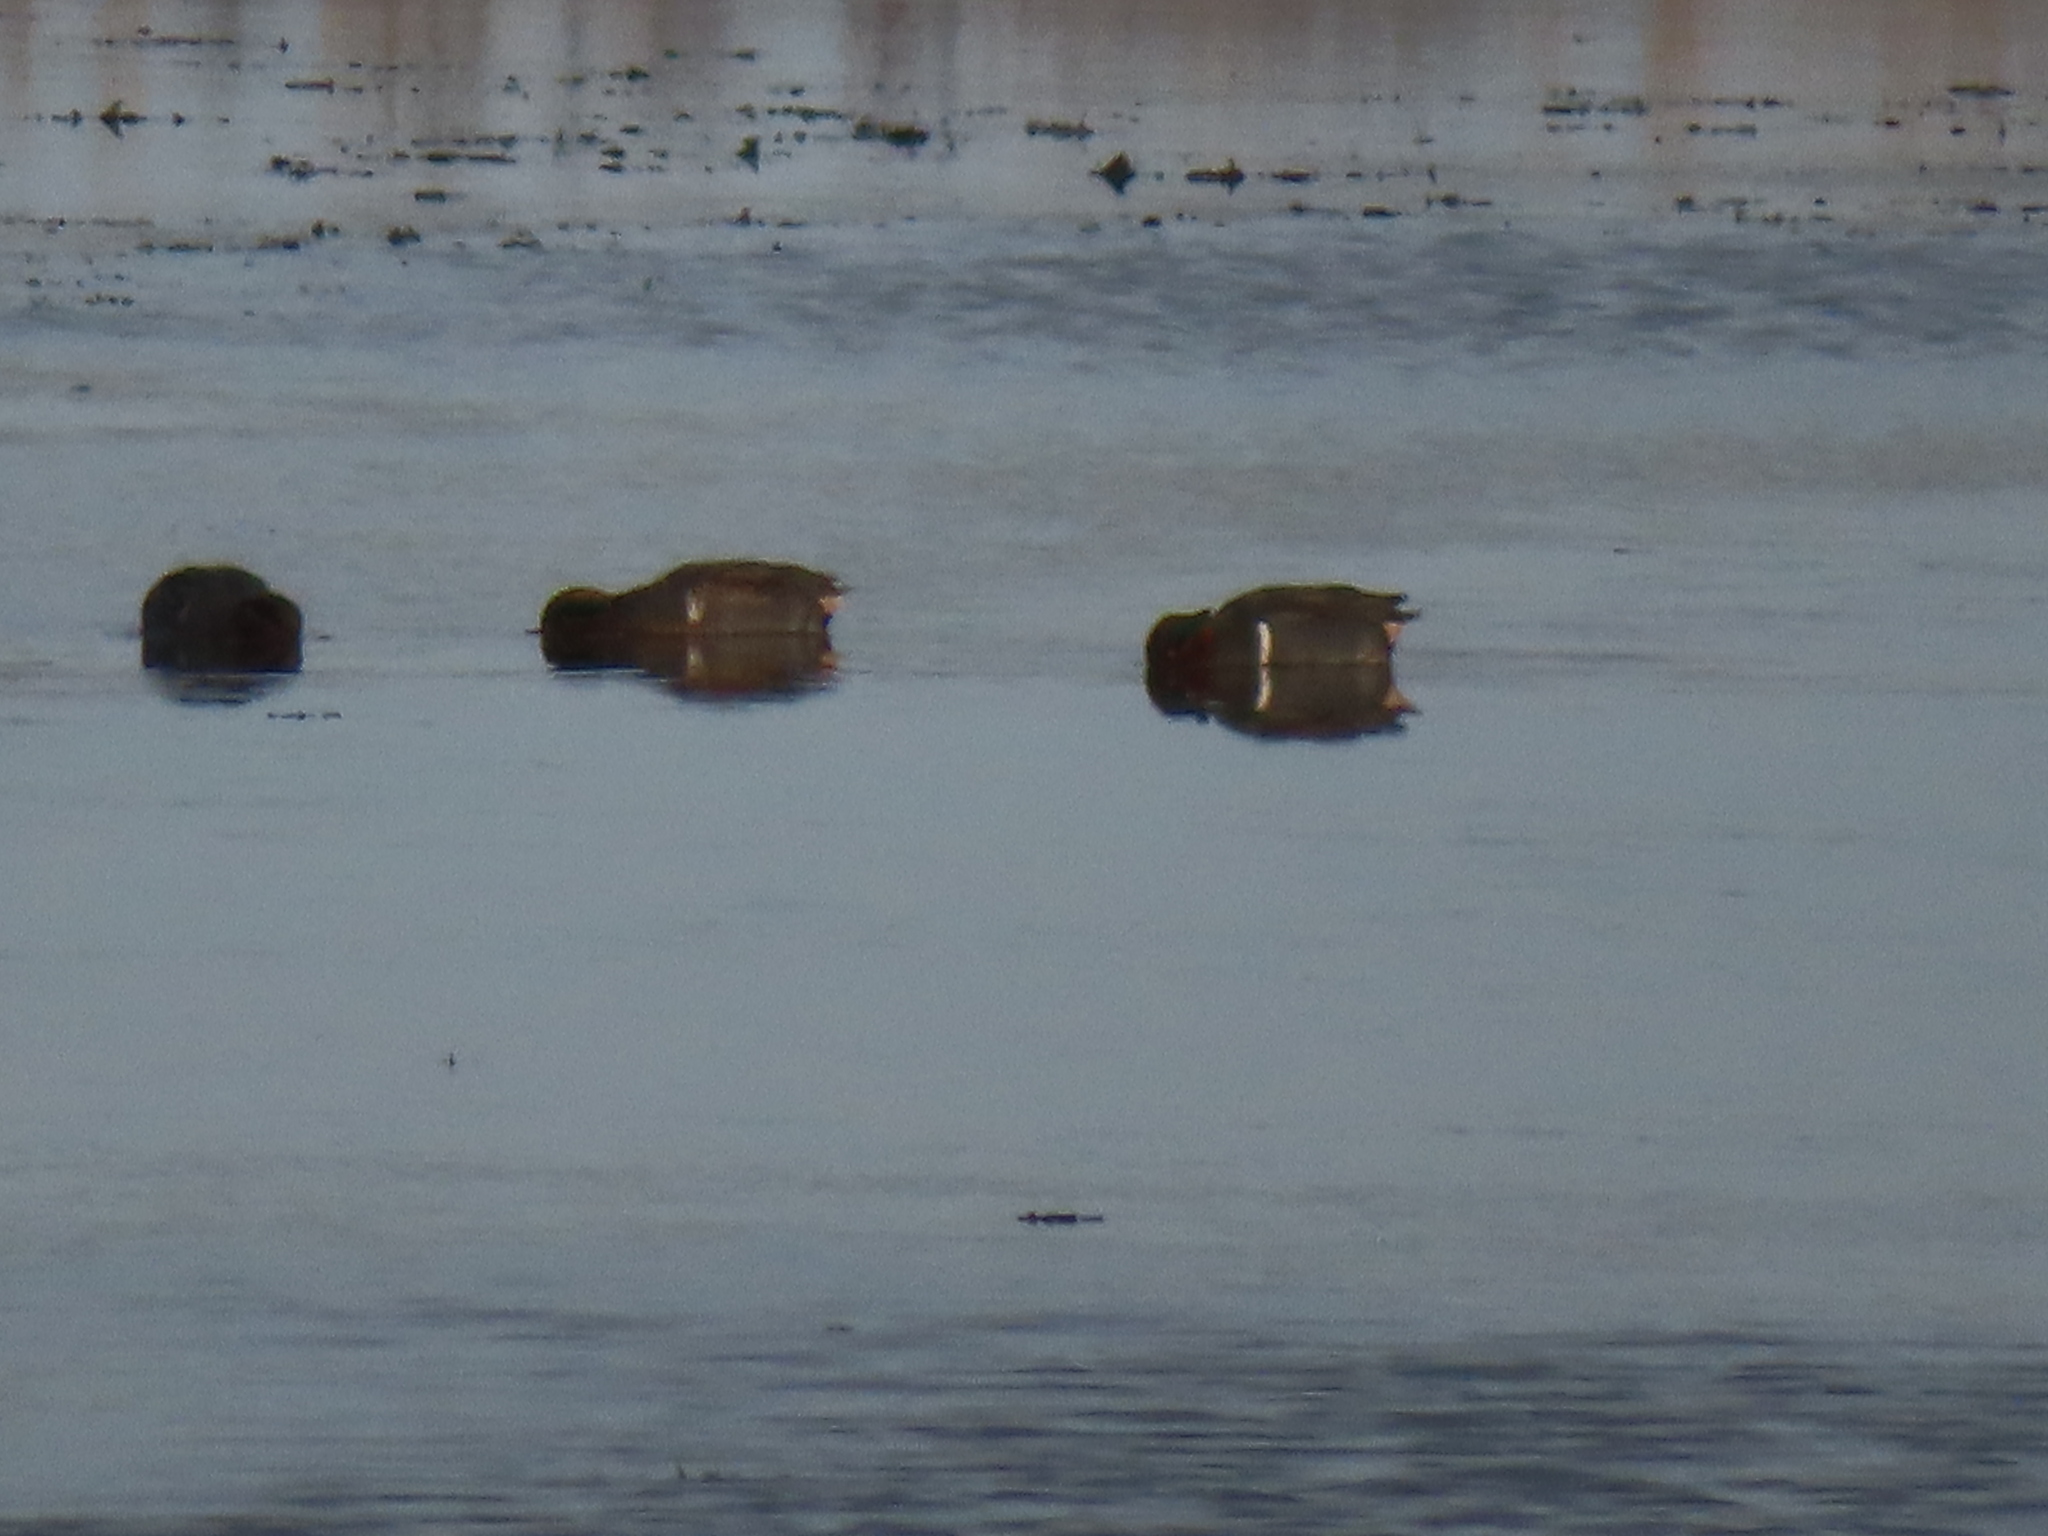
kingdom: Animalia
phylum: Chordata
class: Aves
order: Anseriformes
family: Anatidae
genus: Anas
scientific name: Anas acuta
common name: Northern pintail
